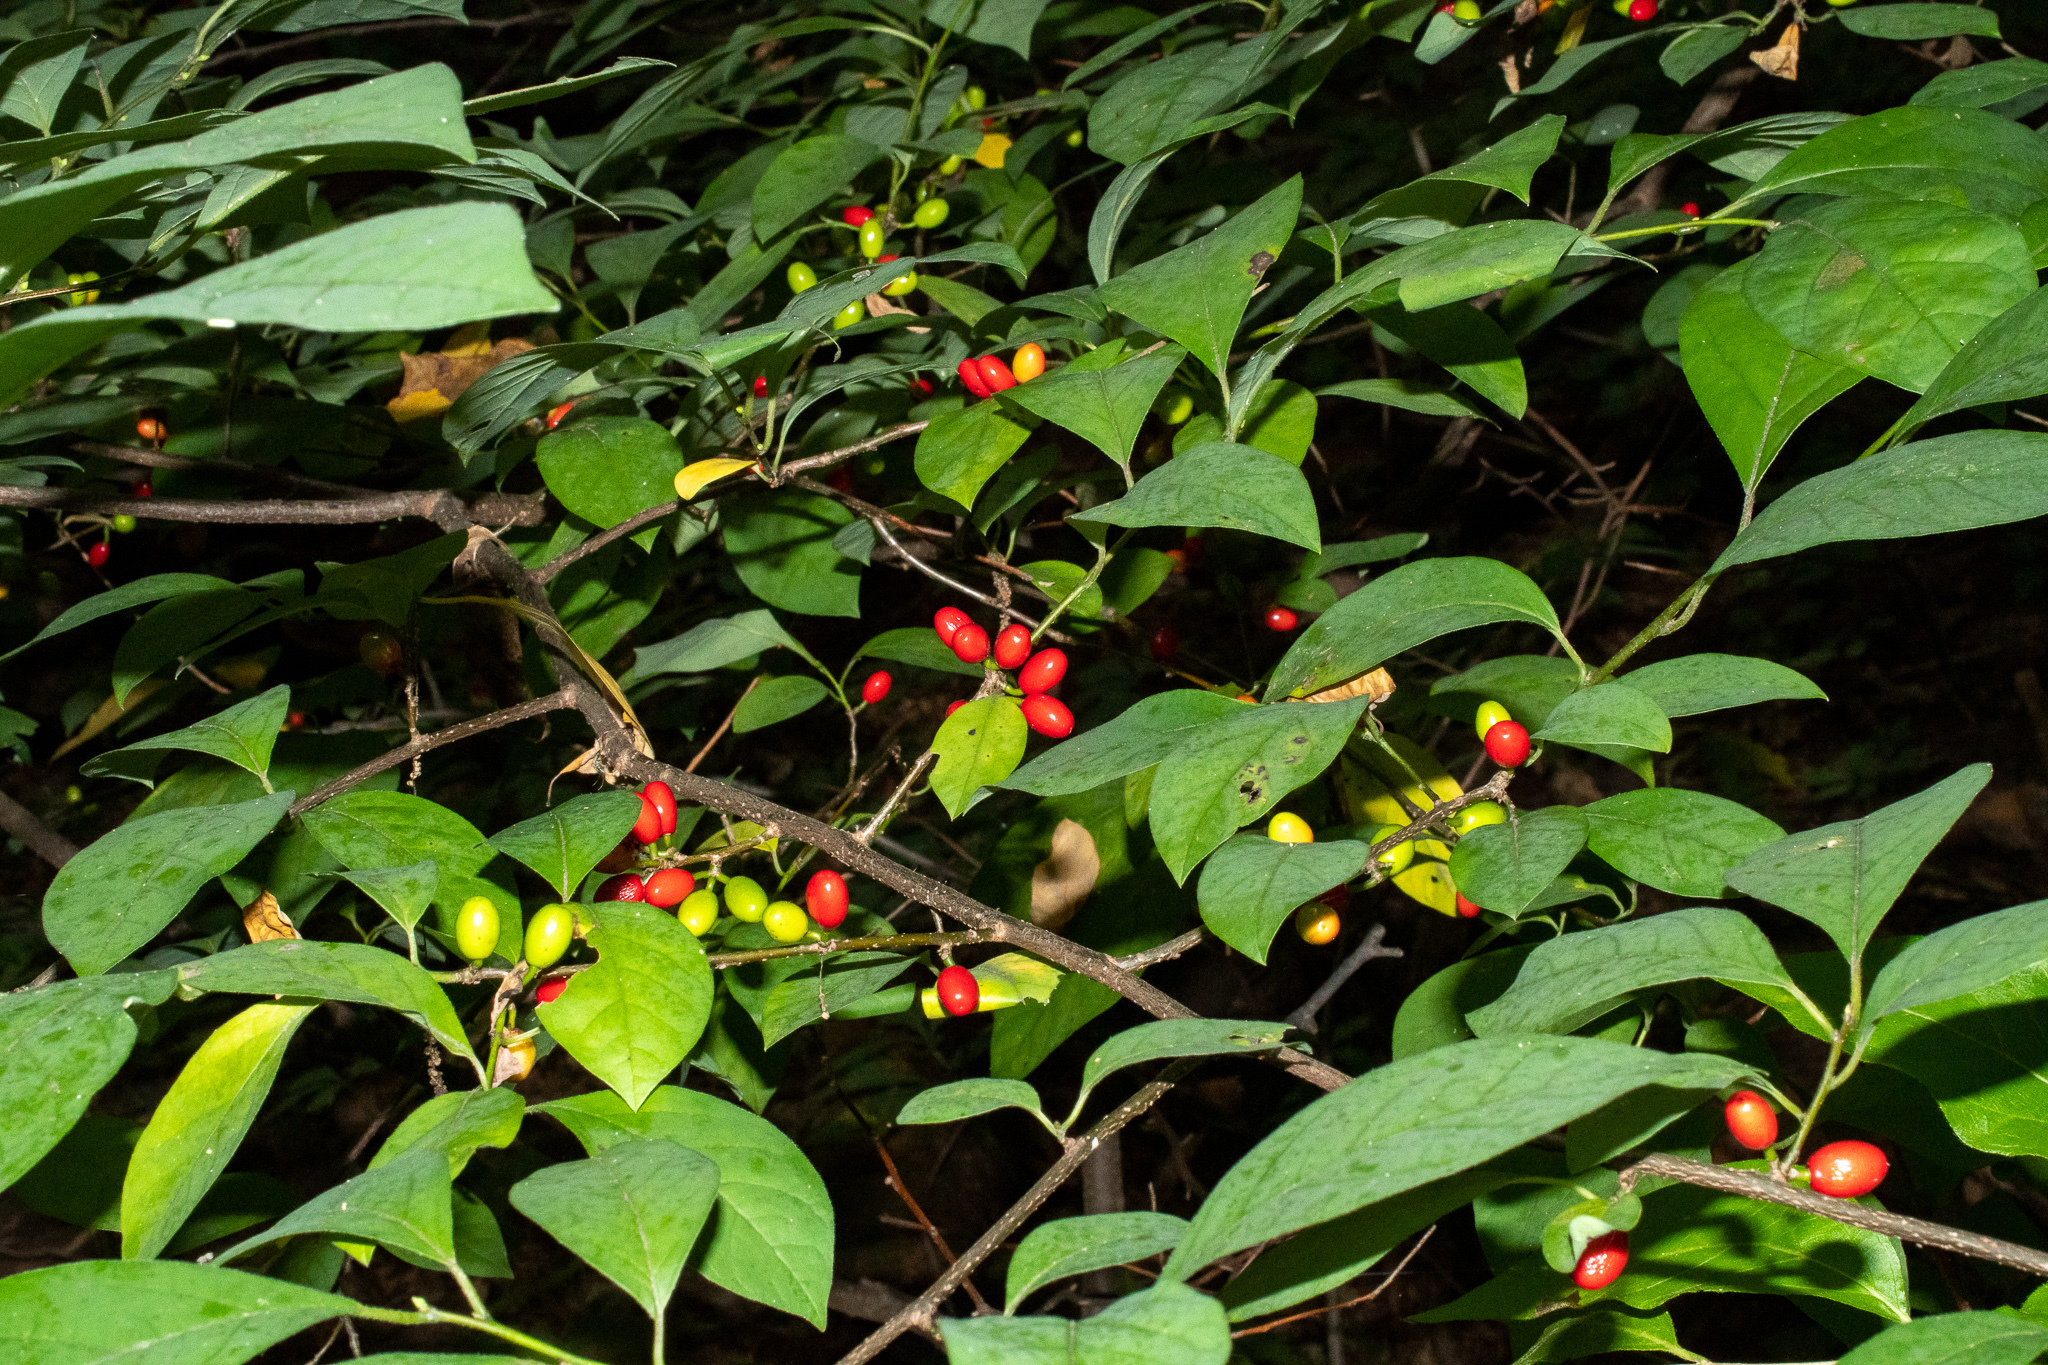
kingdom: Plantae
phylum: Tracheophyta
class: Magnoliopsida
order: Laurales
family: Lauraceae
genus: Lindera
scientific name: Lindera benzoin
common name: Spicebush
